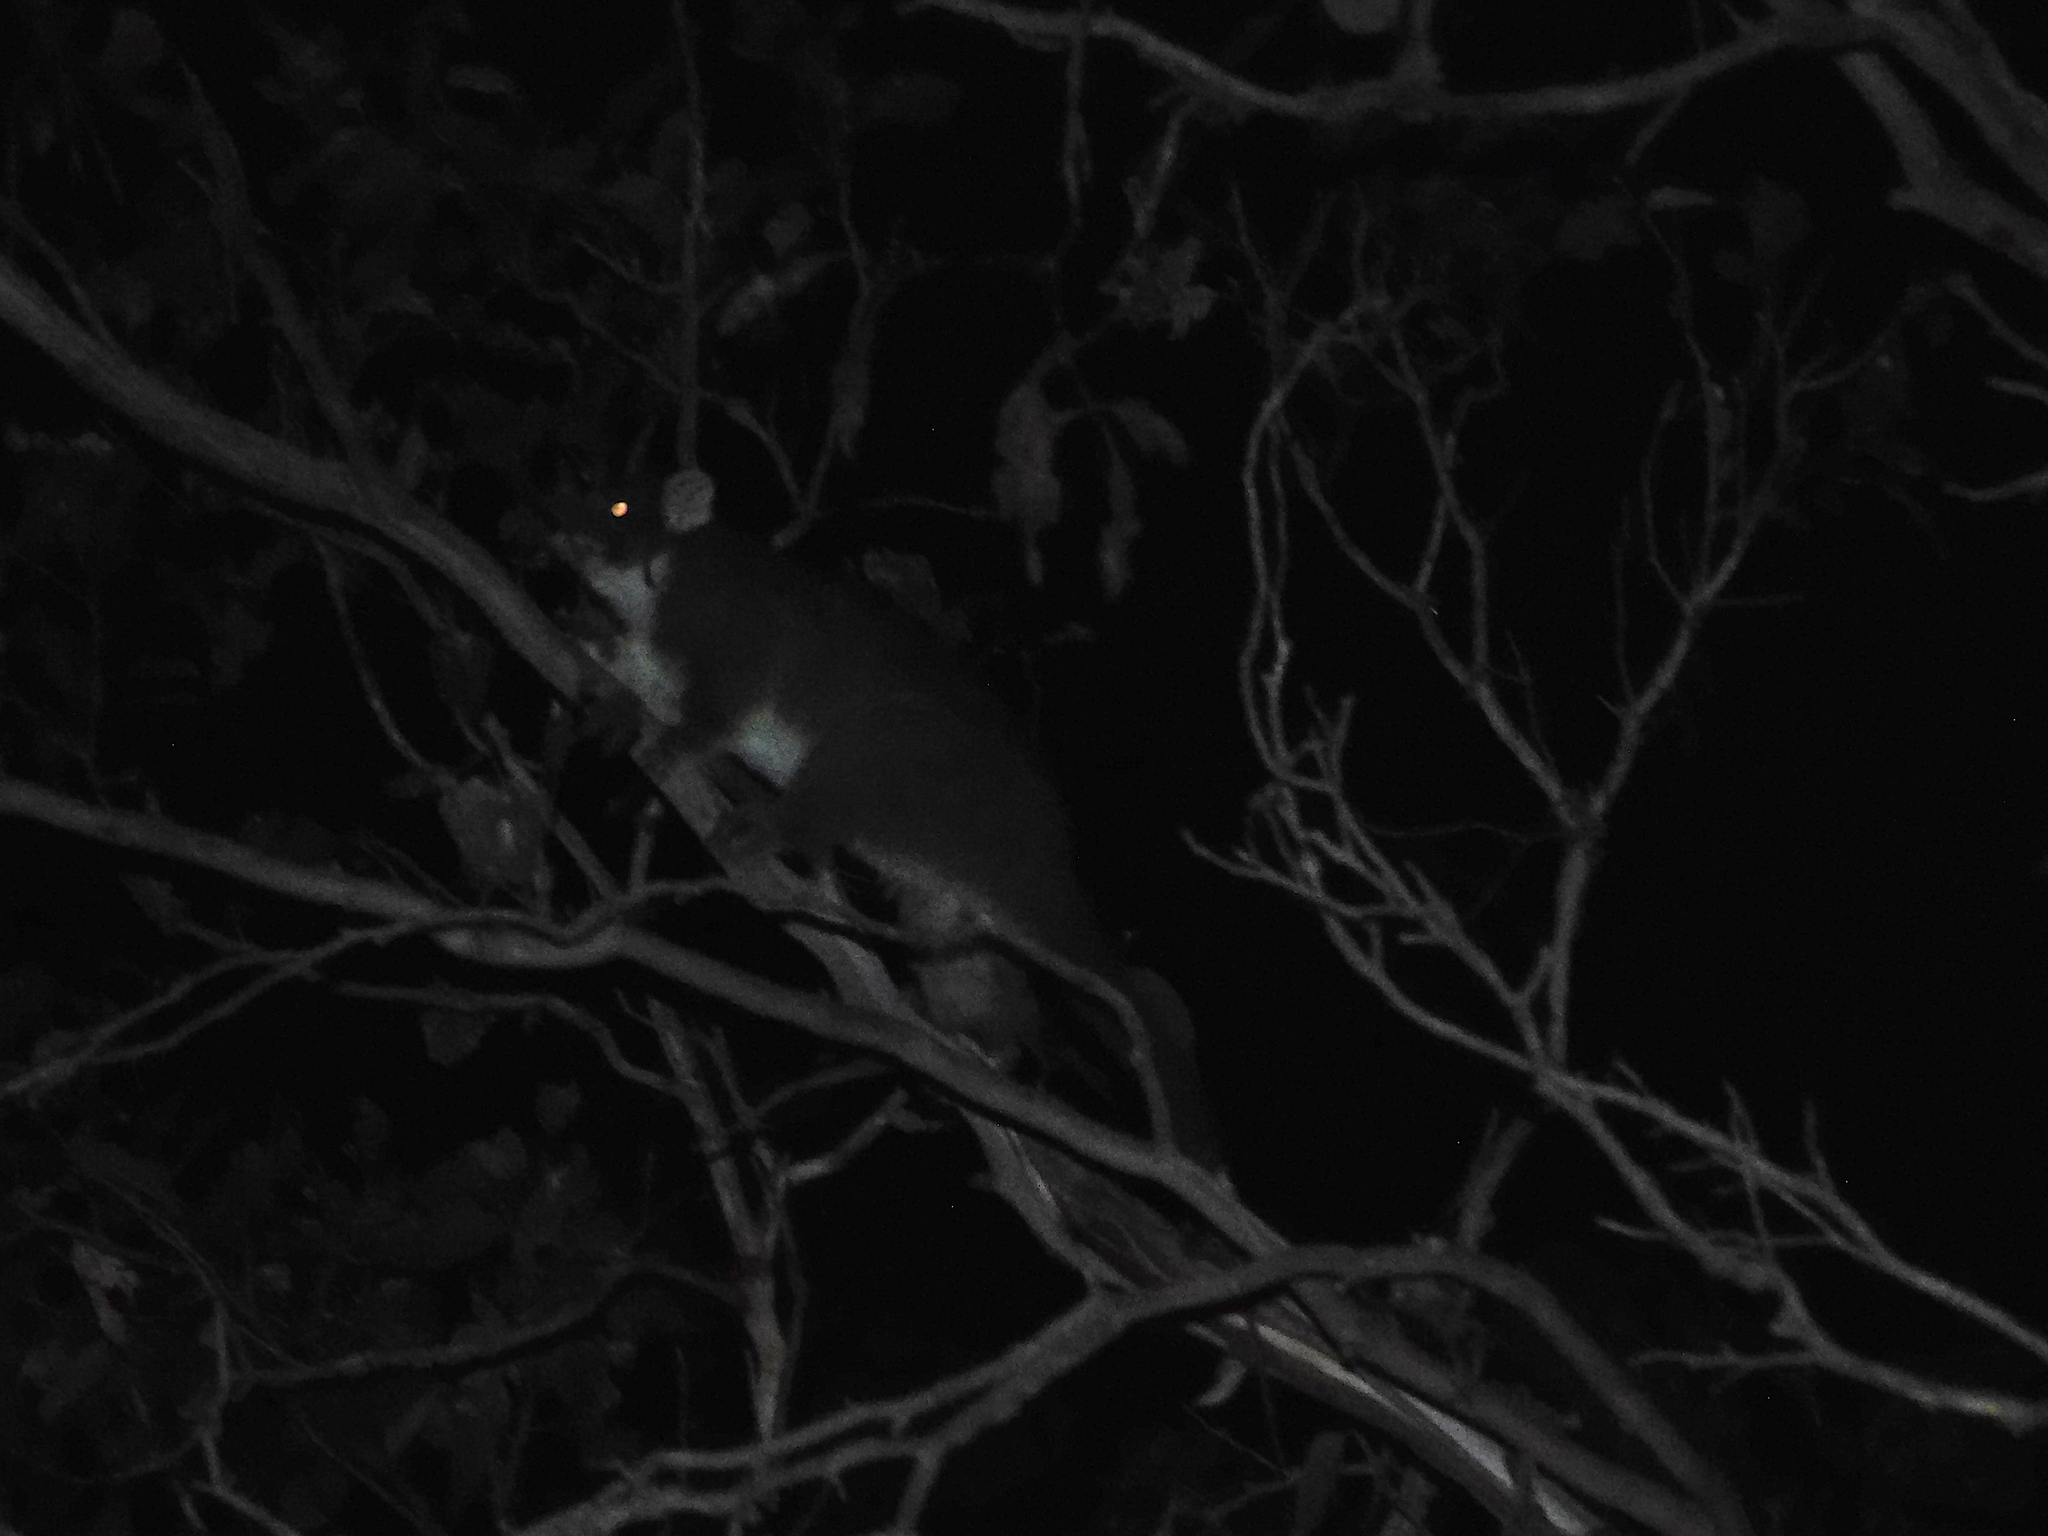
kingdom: Animalia
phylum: Chordata
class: Mammalia
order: Diprotodontia
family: Pseudocheiridae
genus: Pseudocheirus
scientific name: Pseudocheirus peregrinus
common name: Common ringtail possum
